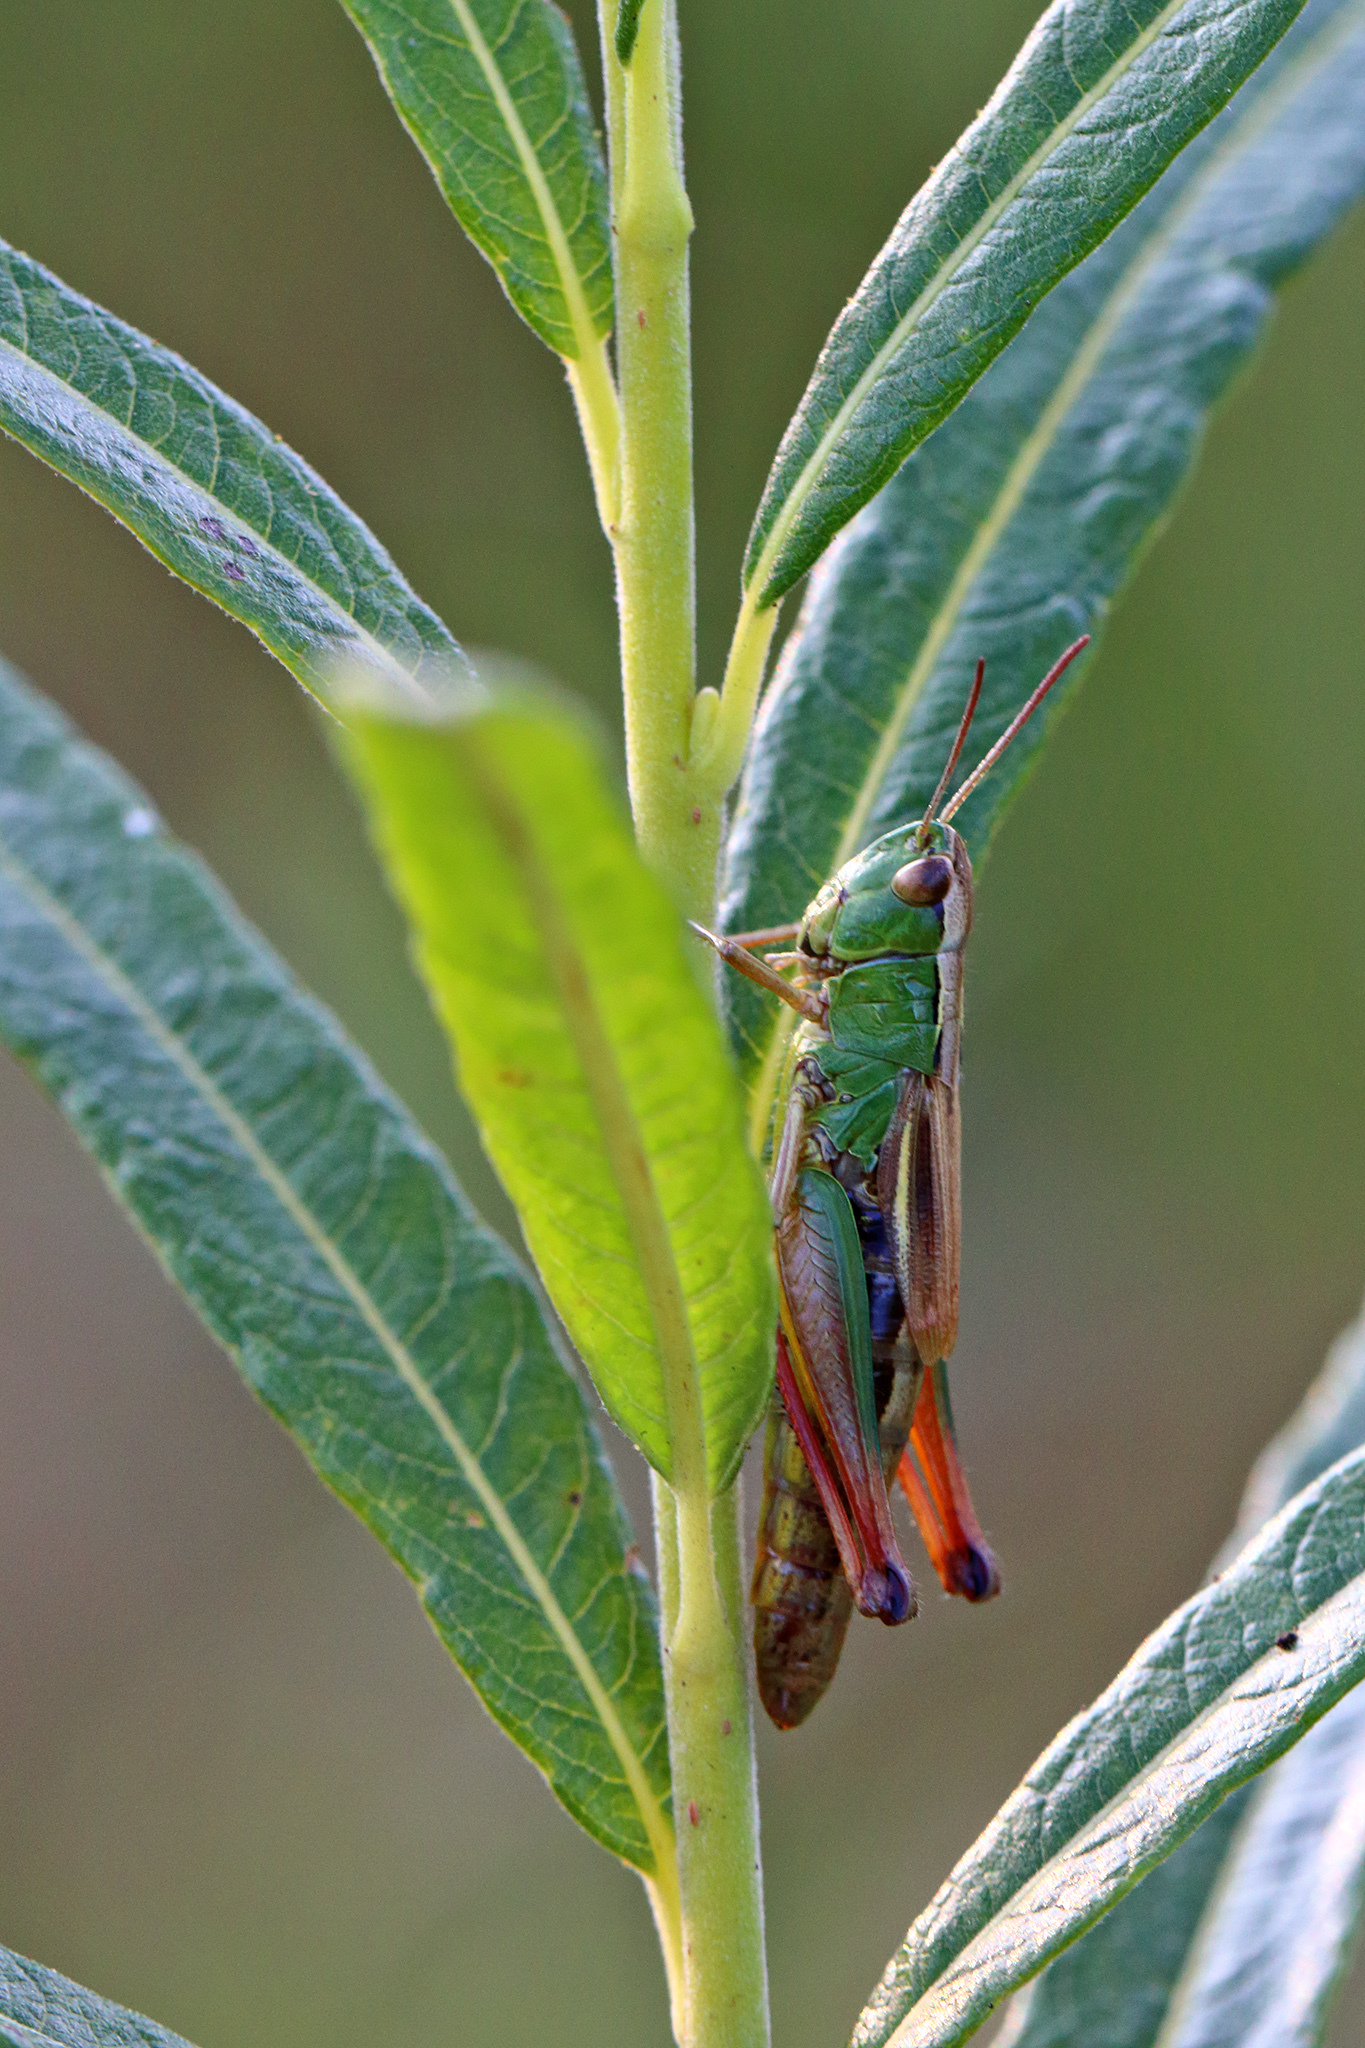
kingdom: Animalia
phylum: Arthropoda
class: Insecta
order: Orthoptera
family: Acrididae
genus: Pseudochorthippus
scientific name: Pseudochorthippus parallelus
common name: Meadow grasshopper
